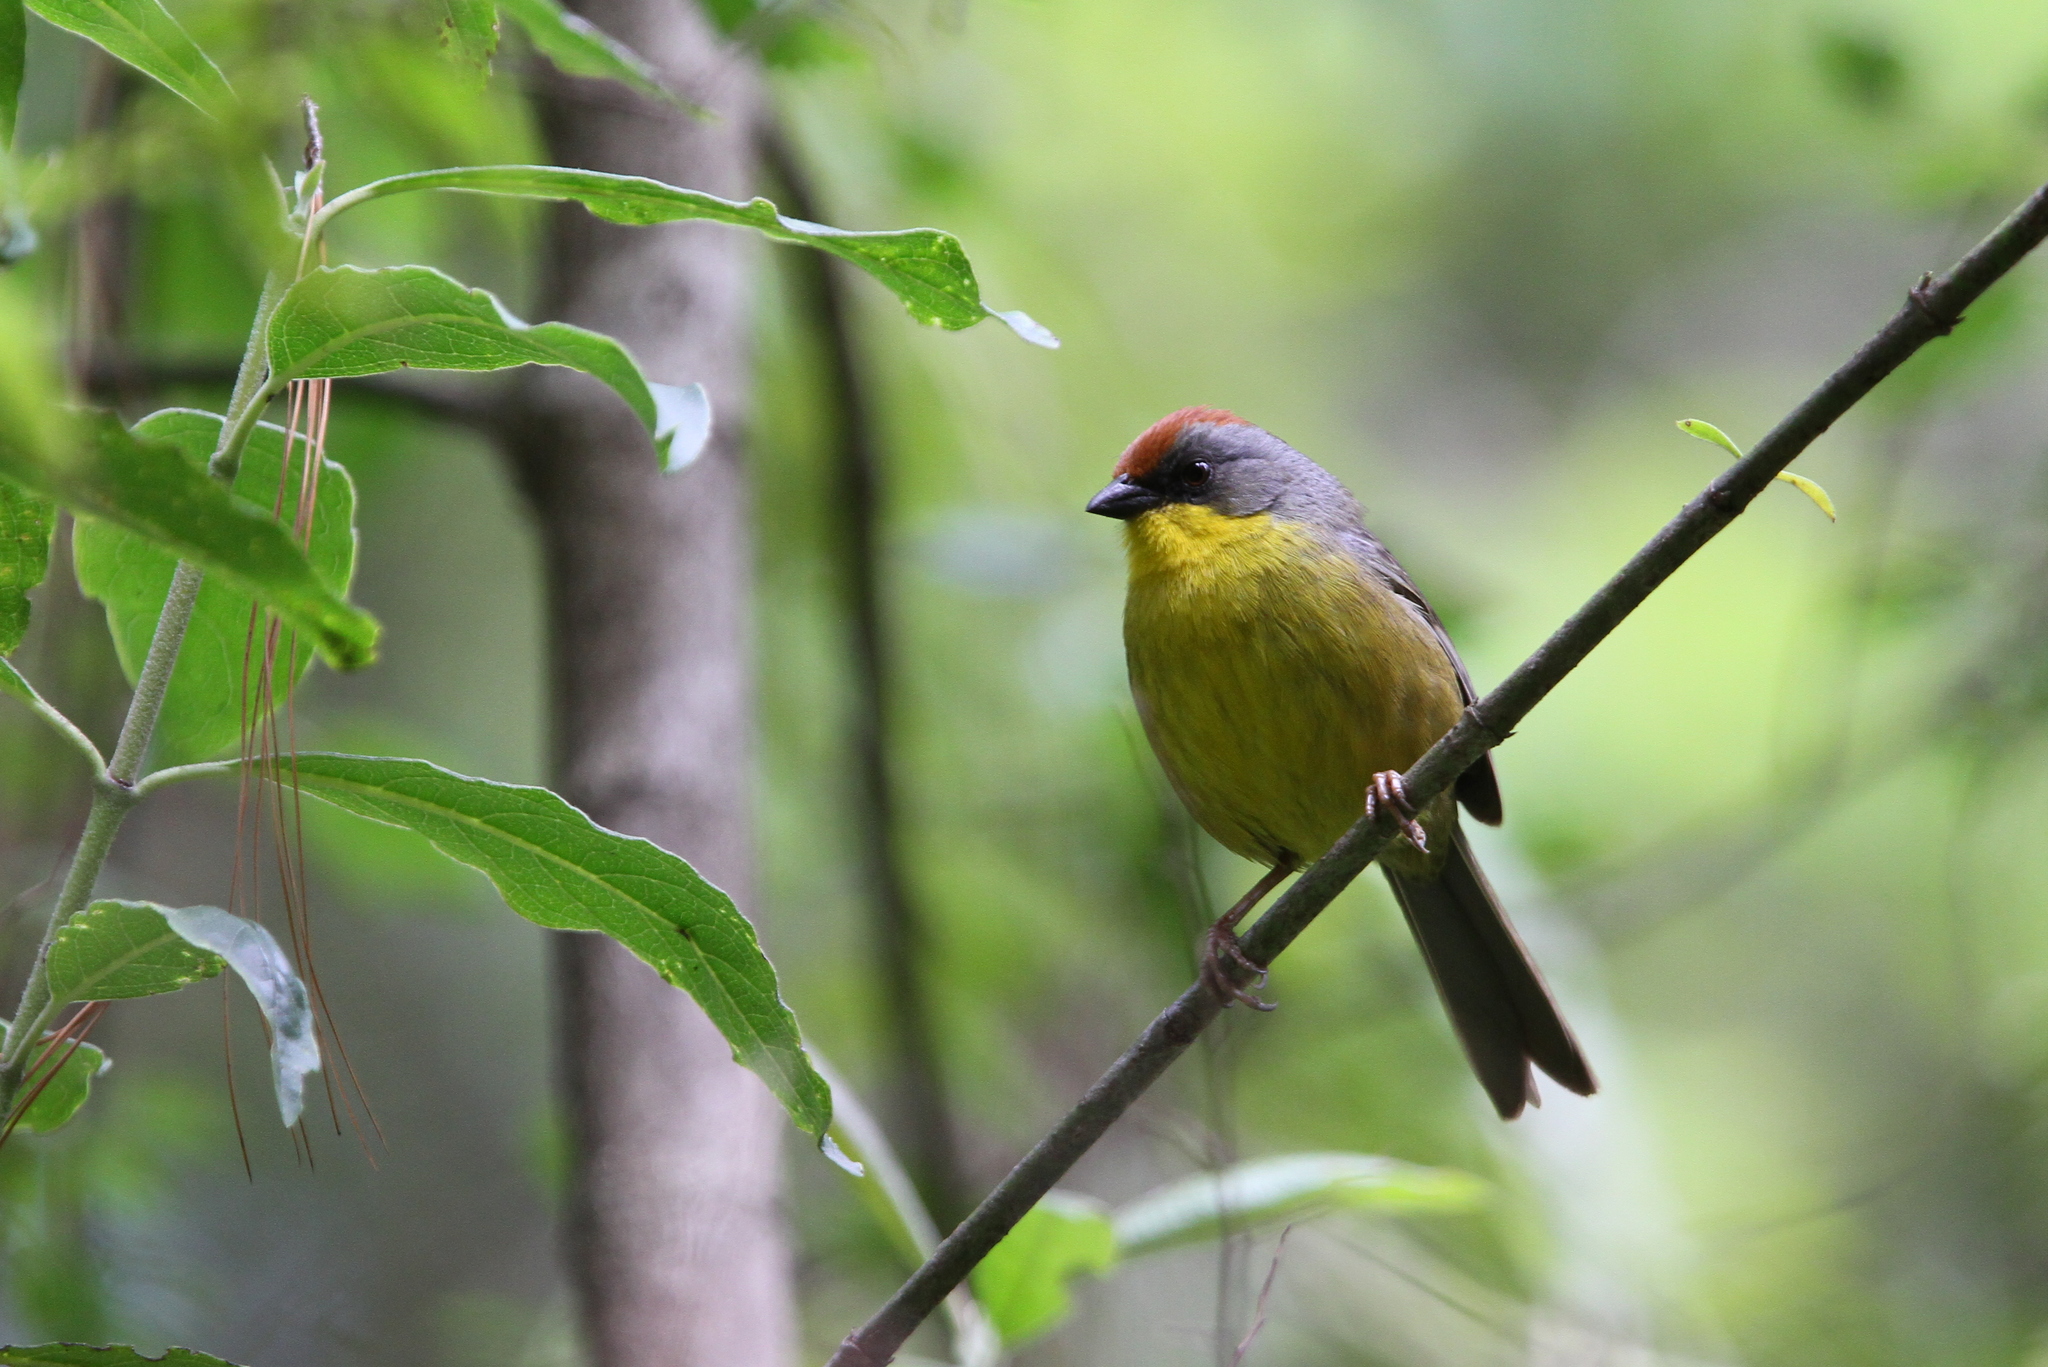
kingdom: Animalia
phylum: Chordata
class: Aves
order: Passeriformes
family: Passerellidae
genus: Atlapetes
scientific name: Atlapetes pileatus
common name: Rufous-capped brush-finch
